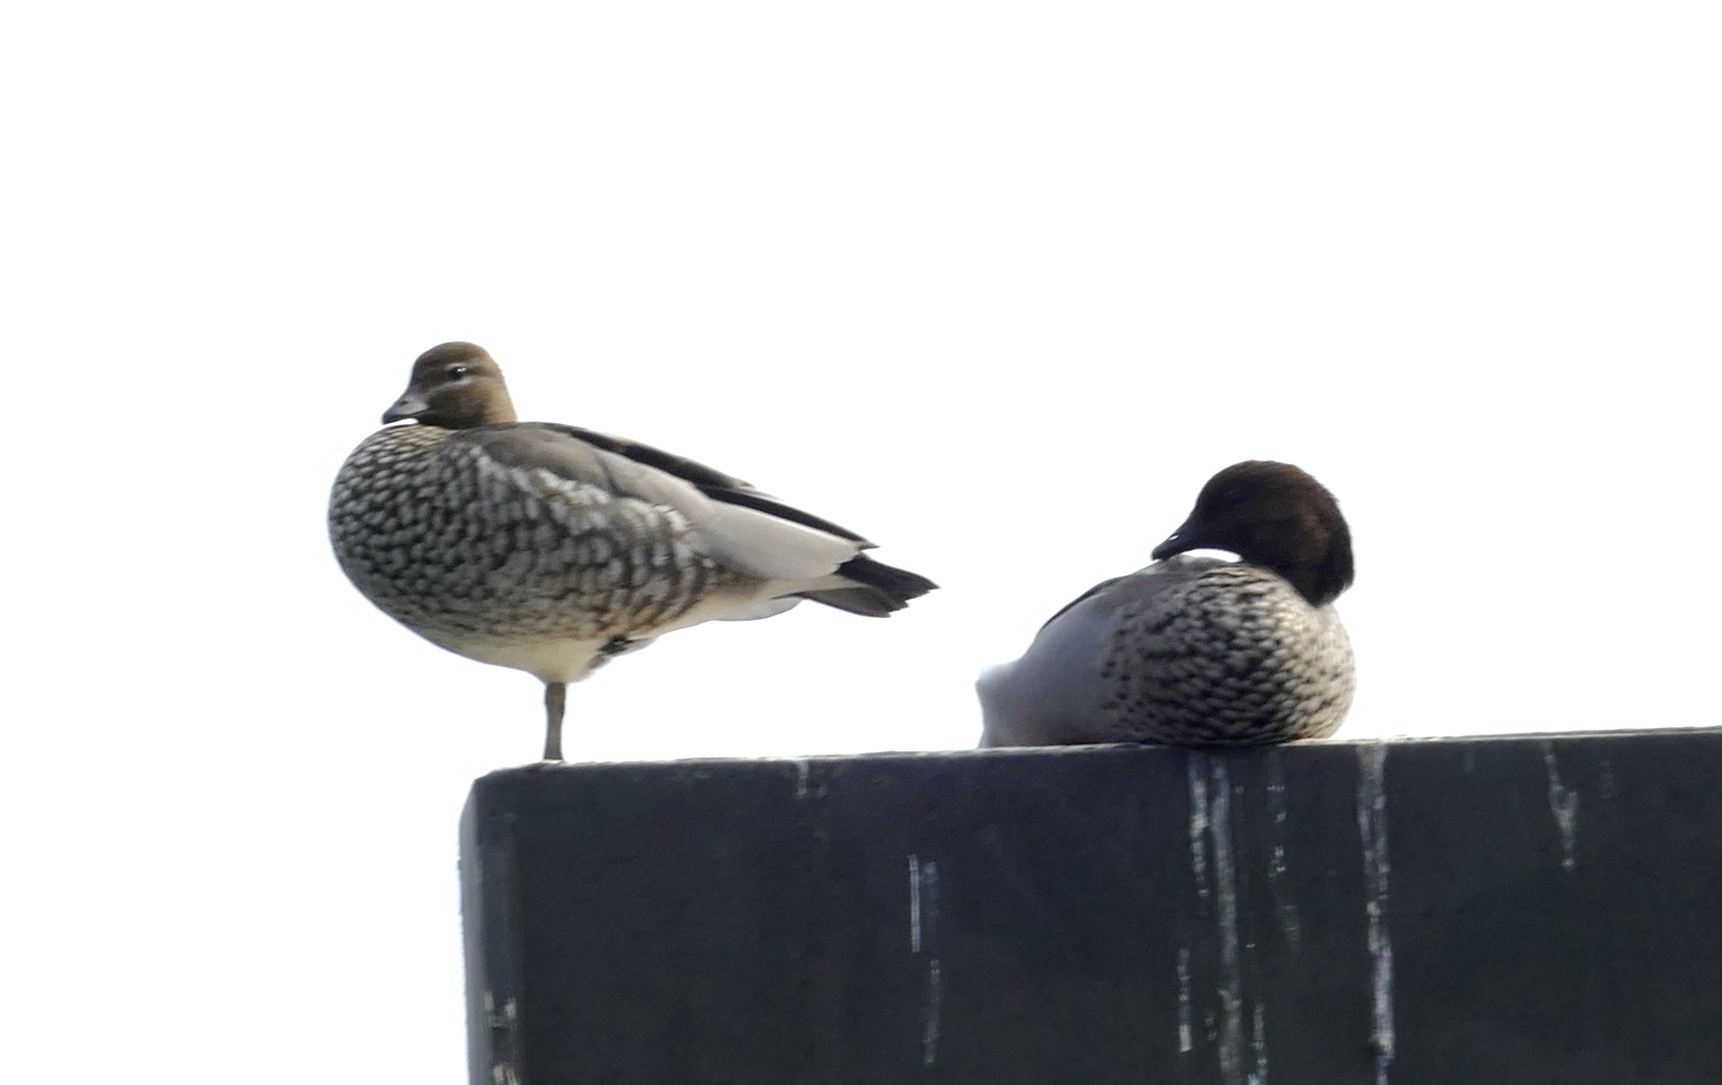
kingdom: Animalia
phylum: Chordata
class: Aves
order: Anseriformes
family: Anatidae
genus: Chenonetta
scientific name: Chenonetta jubata
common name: Maned duck
